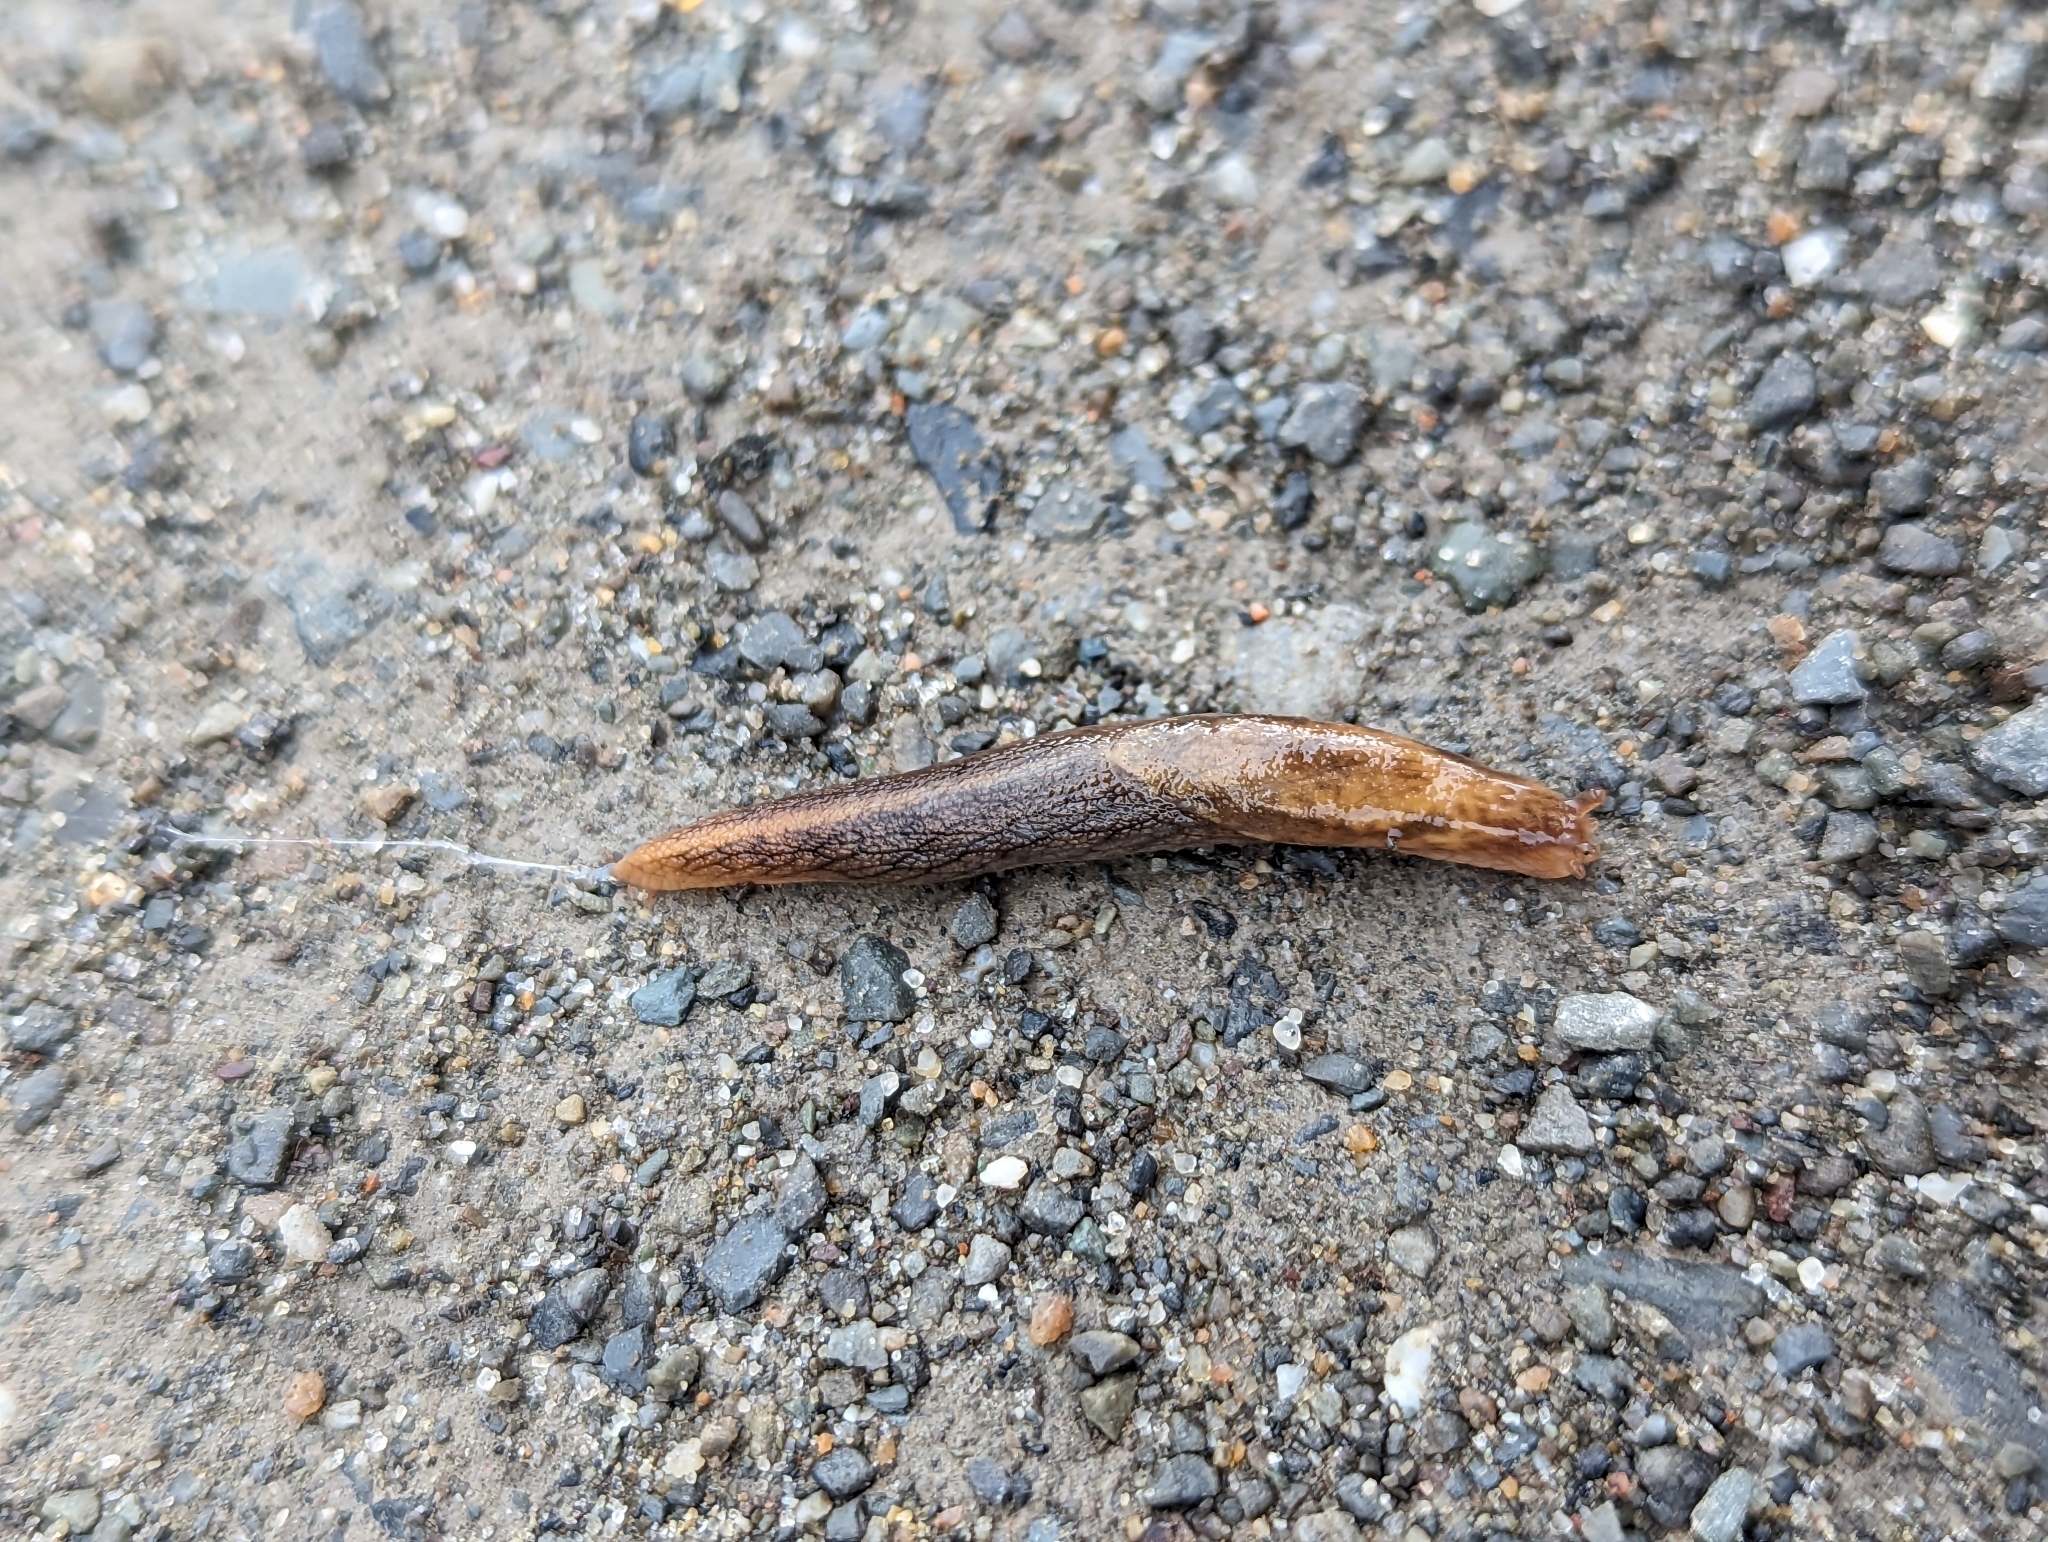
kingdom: Animalia
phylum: Mollusca
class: Gastropoda
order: Stylommatophora
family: Ariolimacidae
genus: Prophysaon
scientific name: Prophysaon andersonii
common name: Reticulate taildropper
